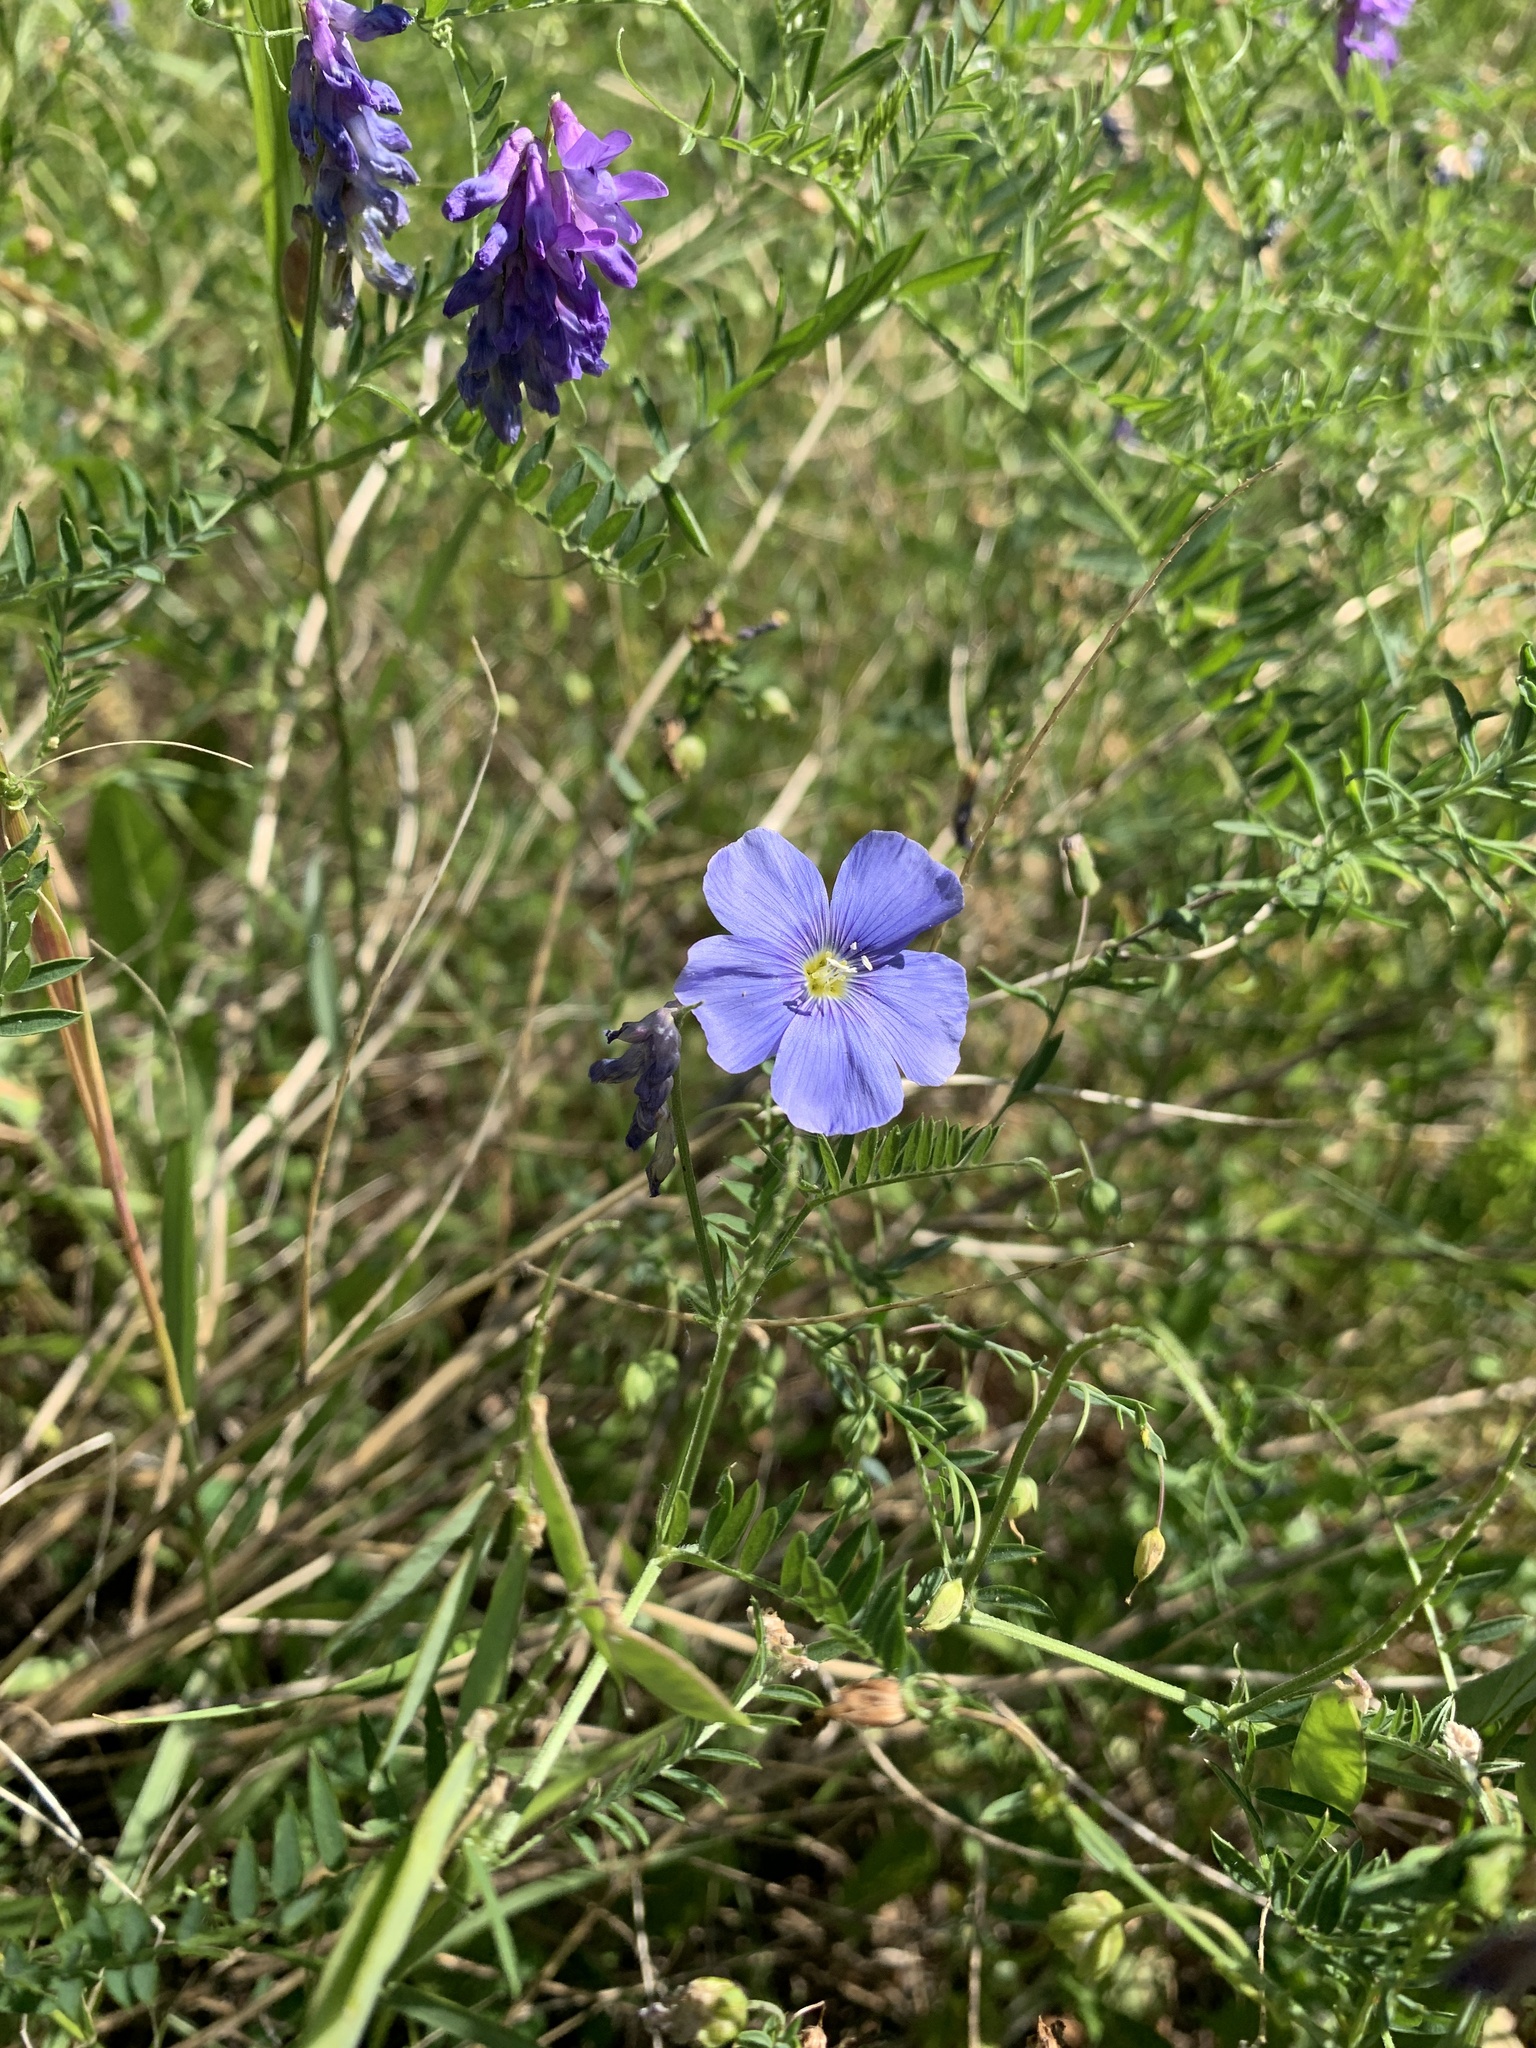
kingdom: Plantae
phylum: Tracheophyta
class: Magnoliopsida
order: Malpighiales
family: Linaceae
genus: Linum
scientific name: Linum lewisii
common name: Prairie flax
